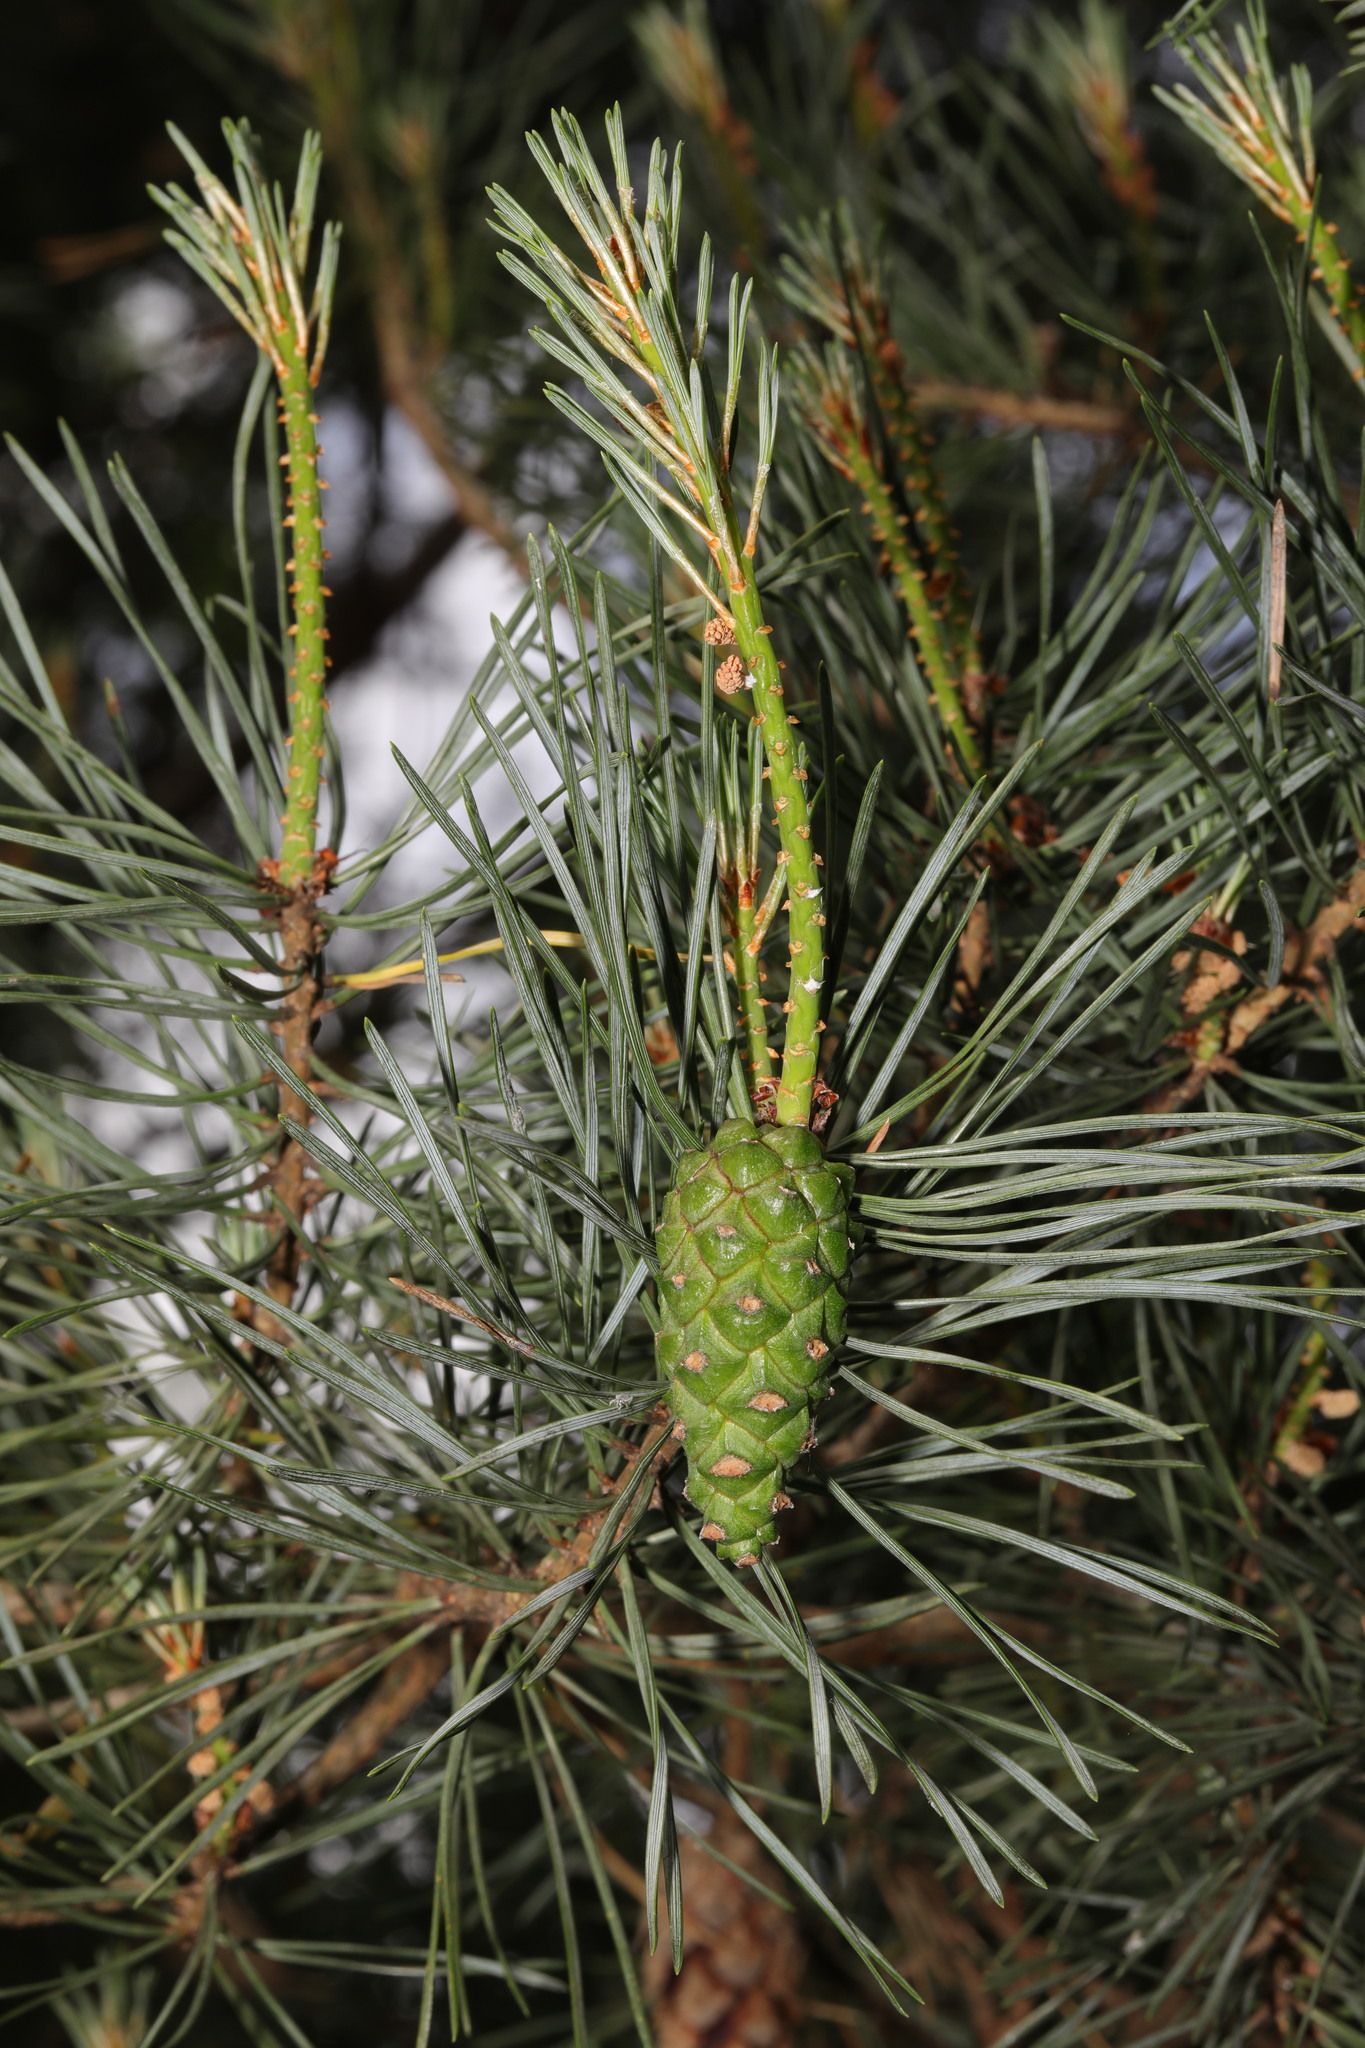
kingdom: Plantae
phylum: Tracheophyta
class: Pinopsida
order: Pinales
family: Pinaceae
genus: Pinus
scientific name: Pinus sylvestris
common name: Scots pine
